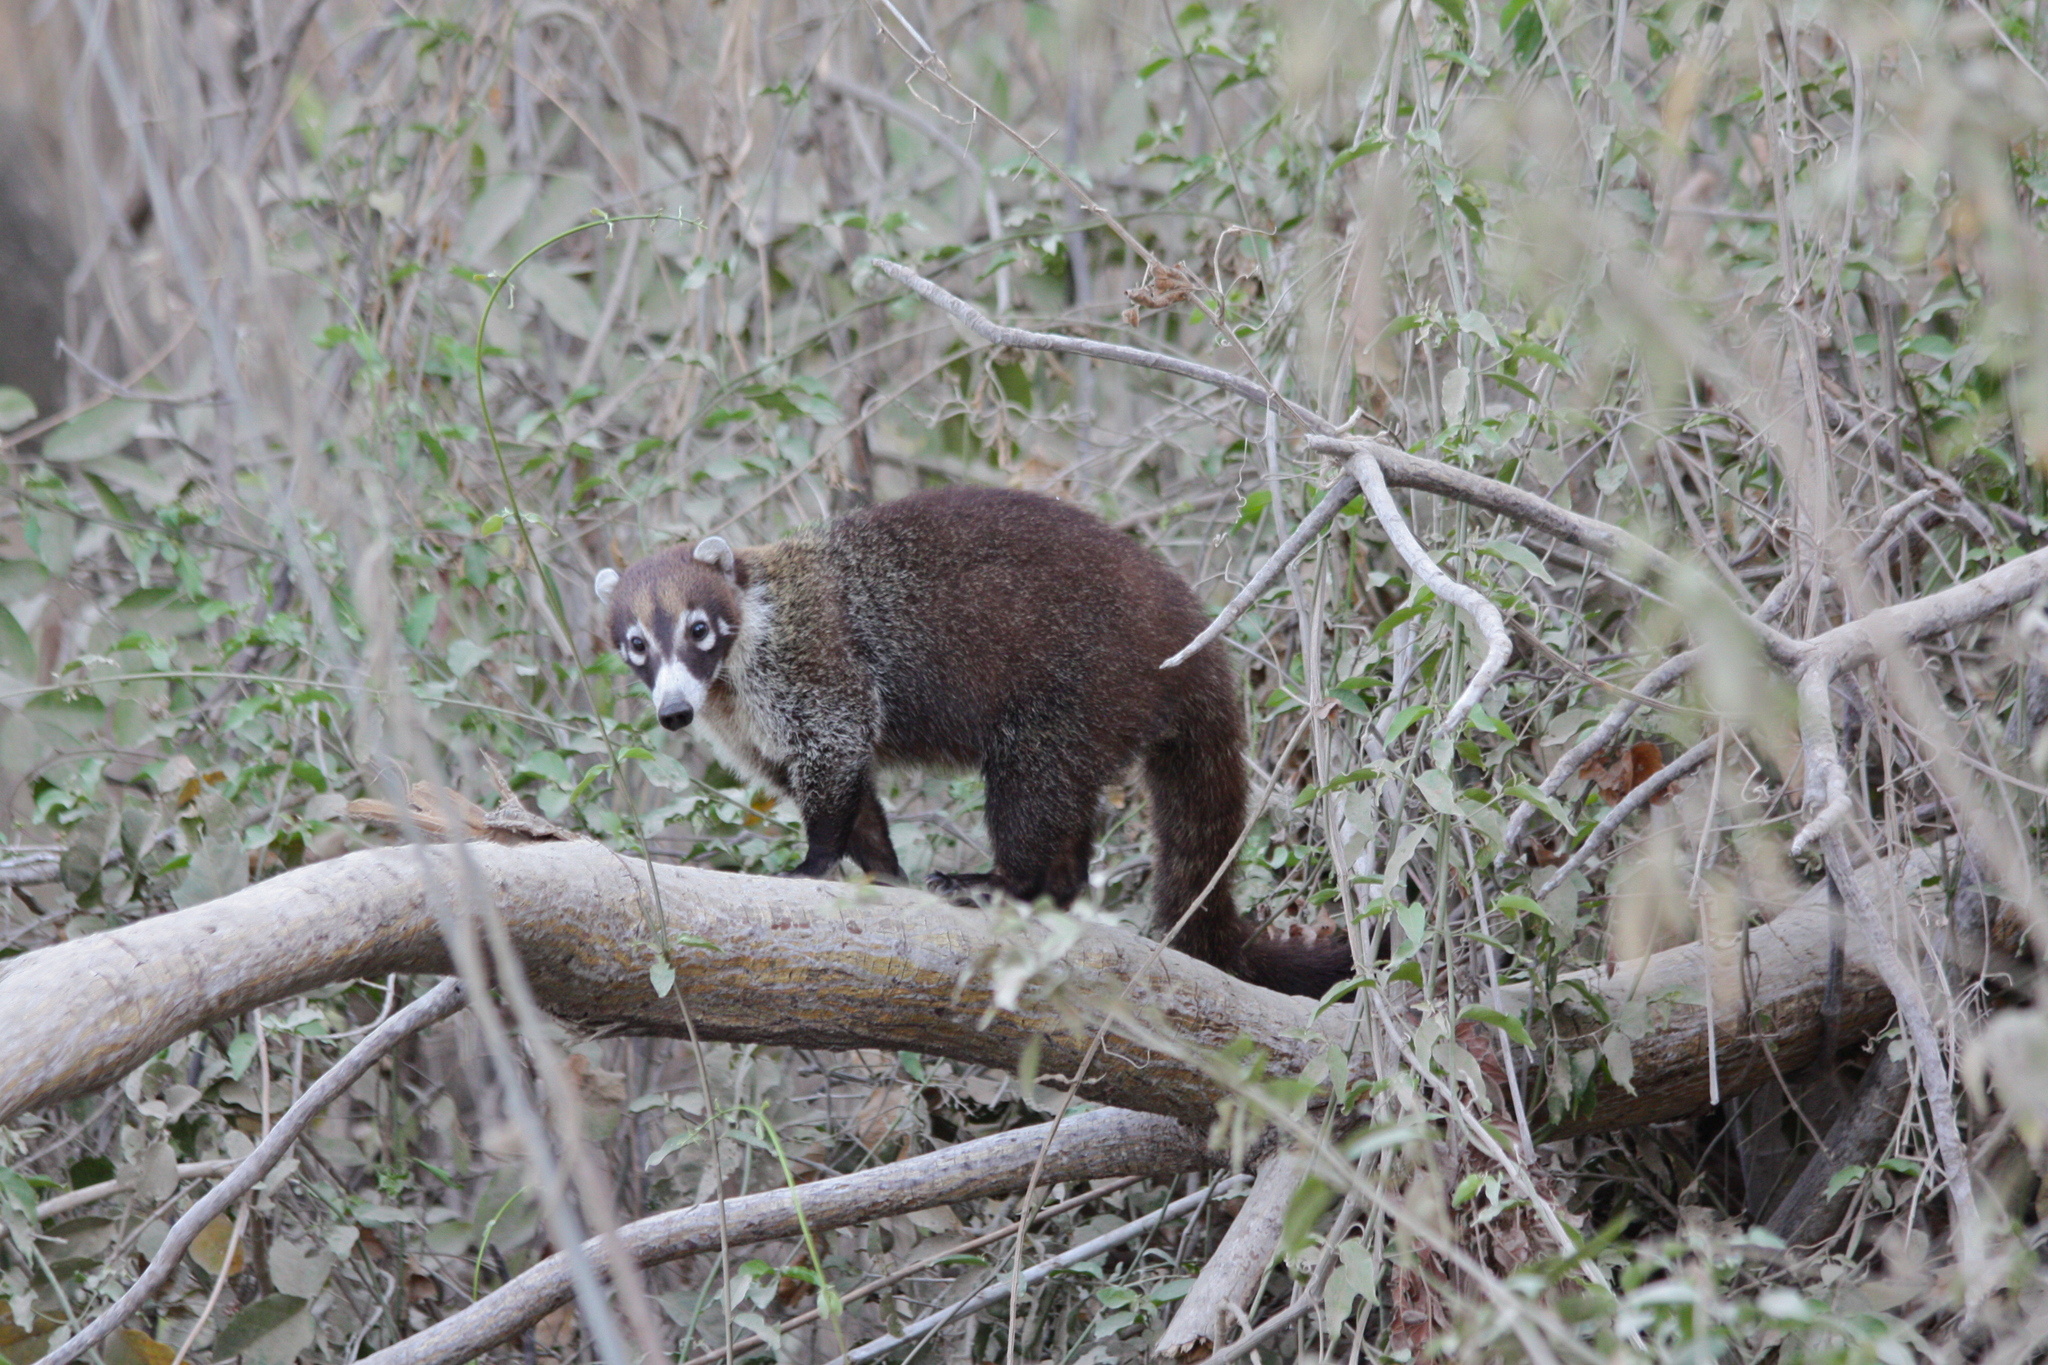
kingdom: Animalia
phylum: Chordata
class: Mammalia
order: Carnivora
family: Procyonidae
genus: Nasua
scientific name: Nasua narica
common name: White-nosed coati
